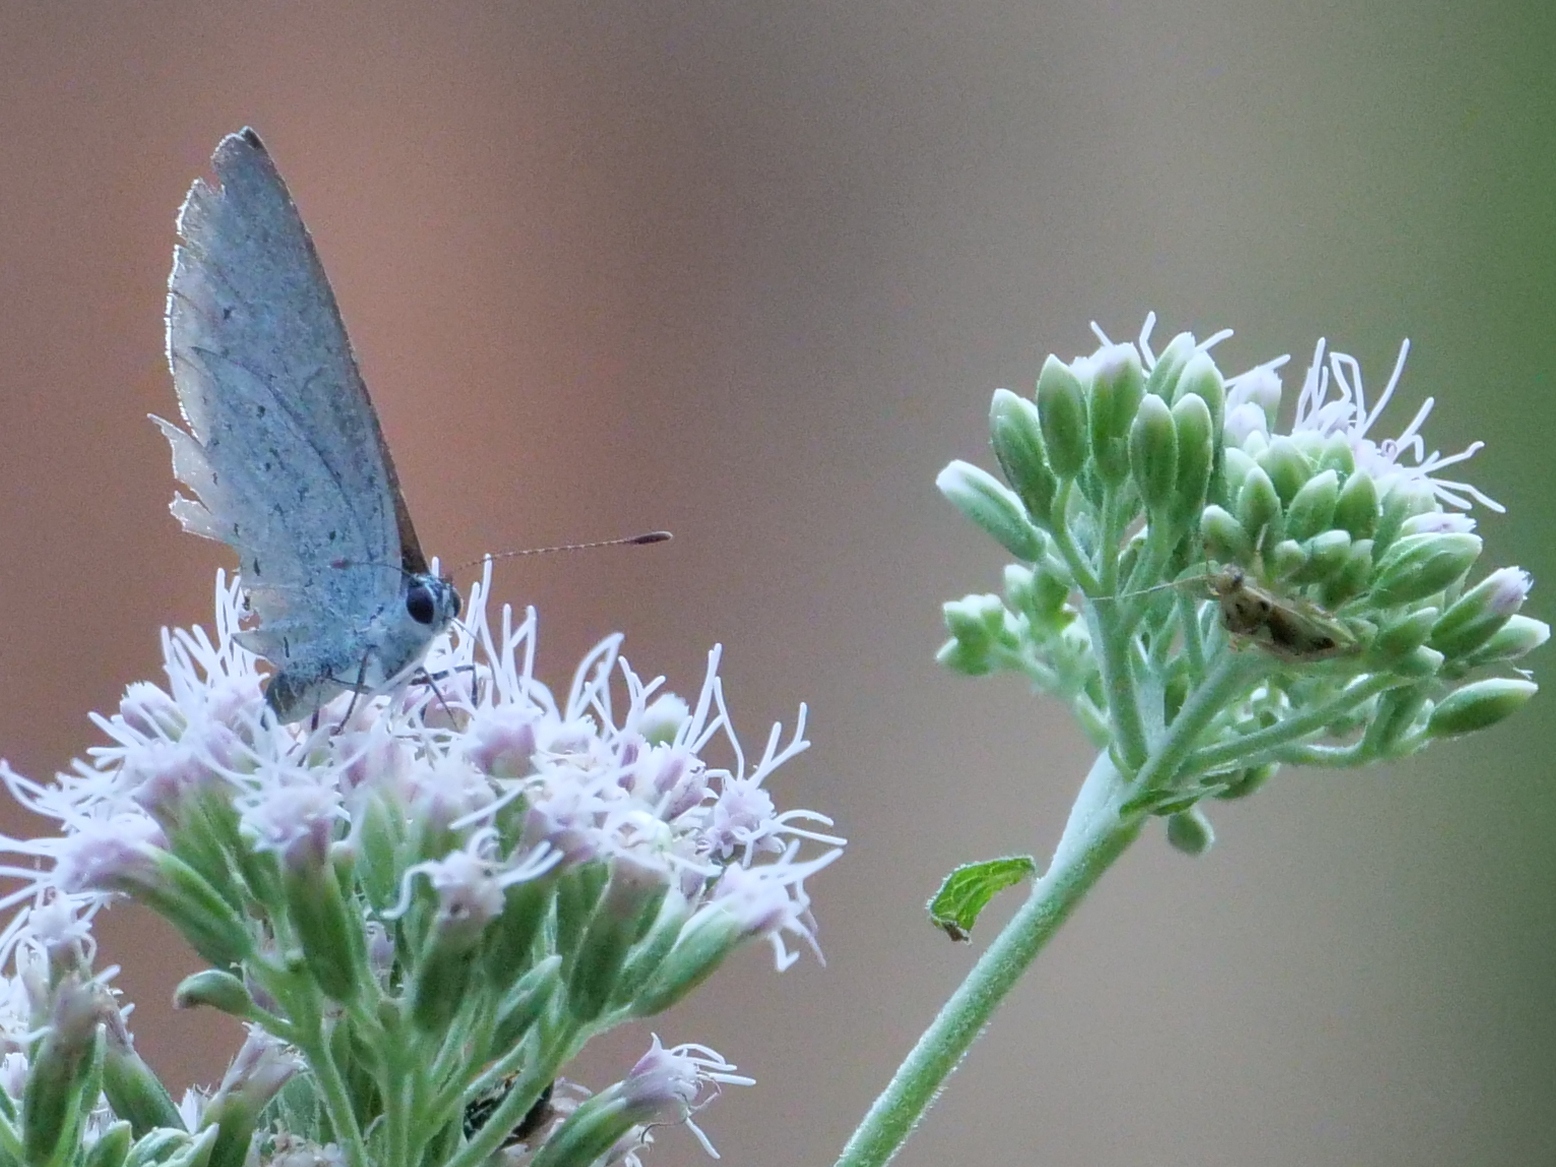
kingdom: Animalia
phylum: Arthropoda
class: Insecta
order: Lepidoptera
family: Lycaenidae
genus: Celastrina
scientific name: Celastrina argiolus
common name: Holly blue
